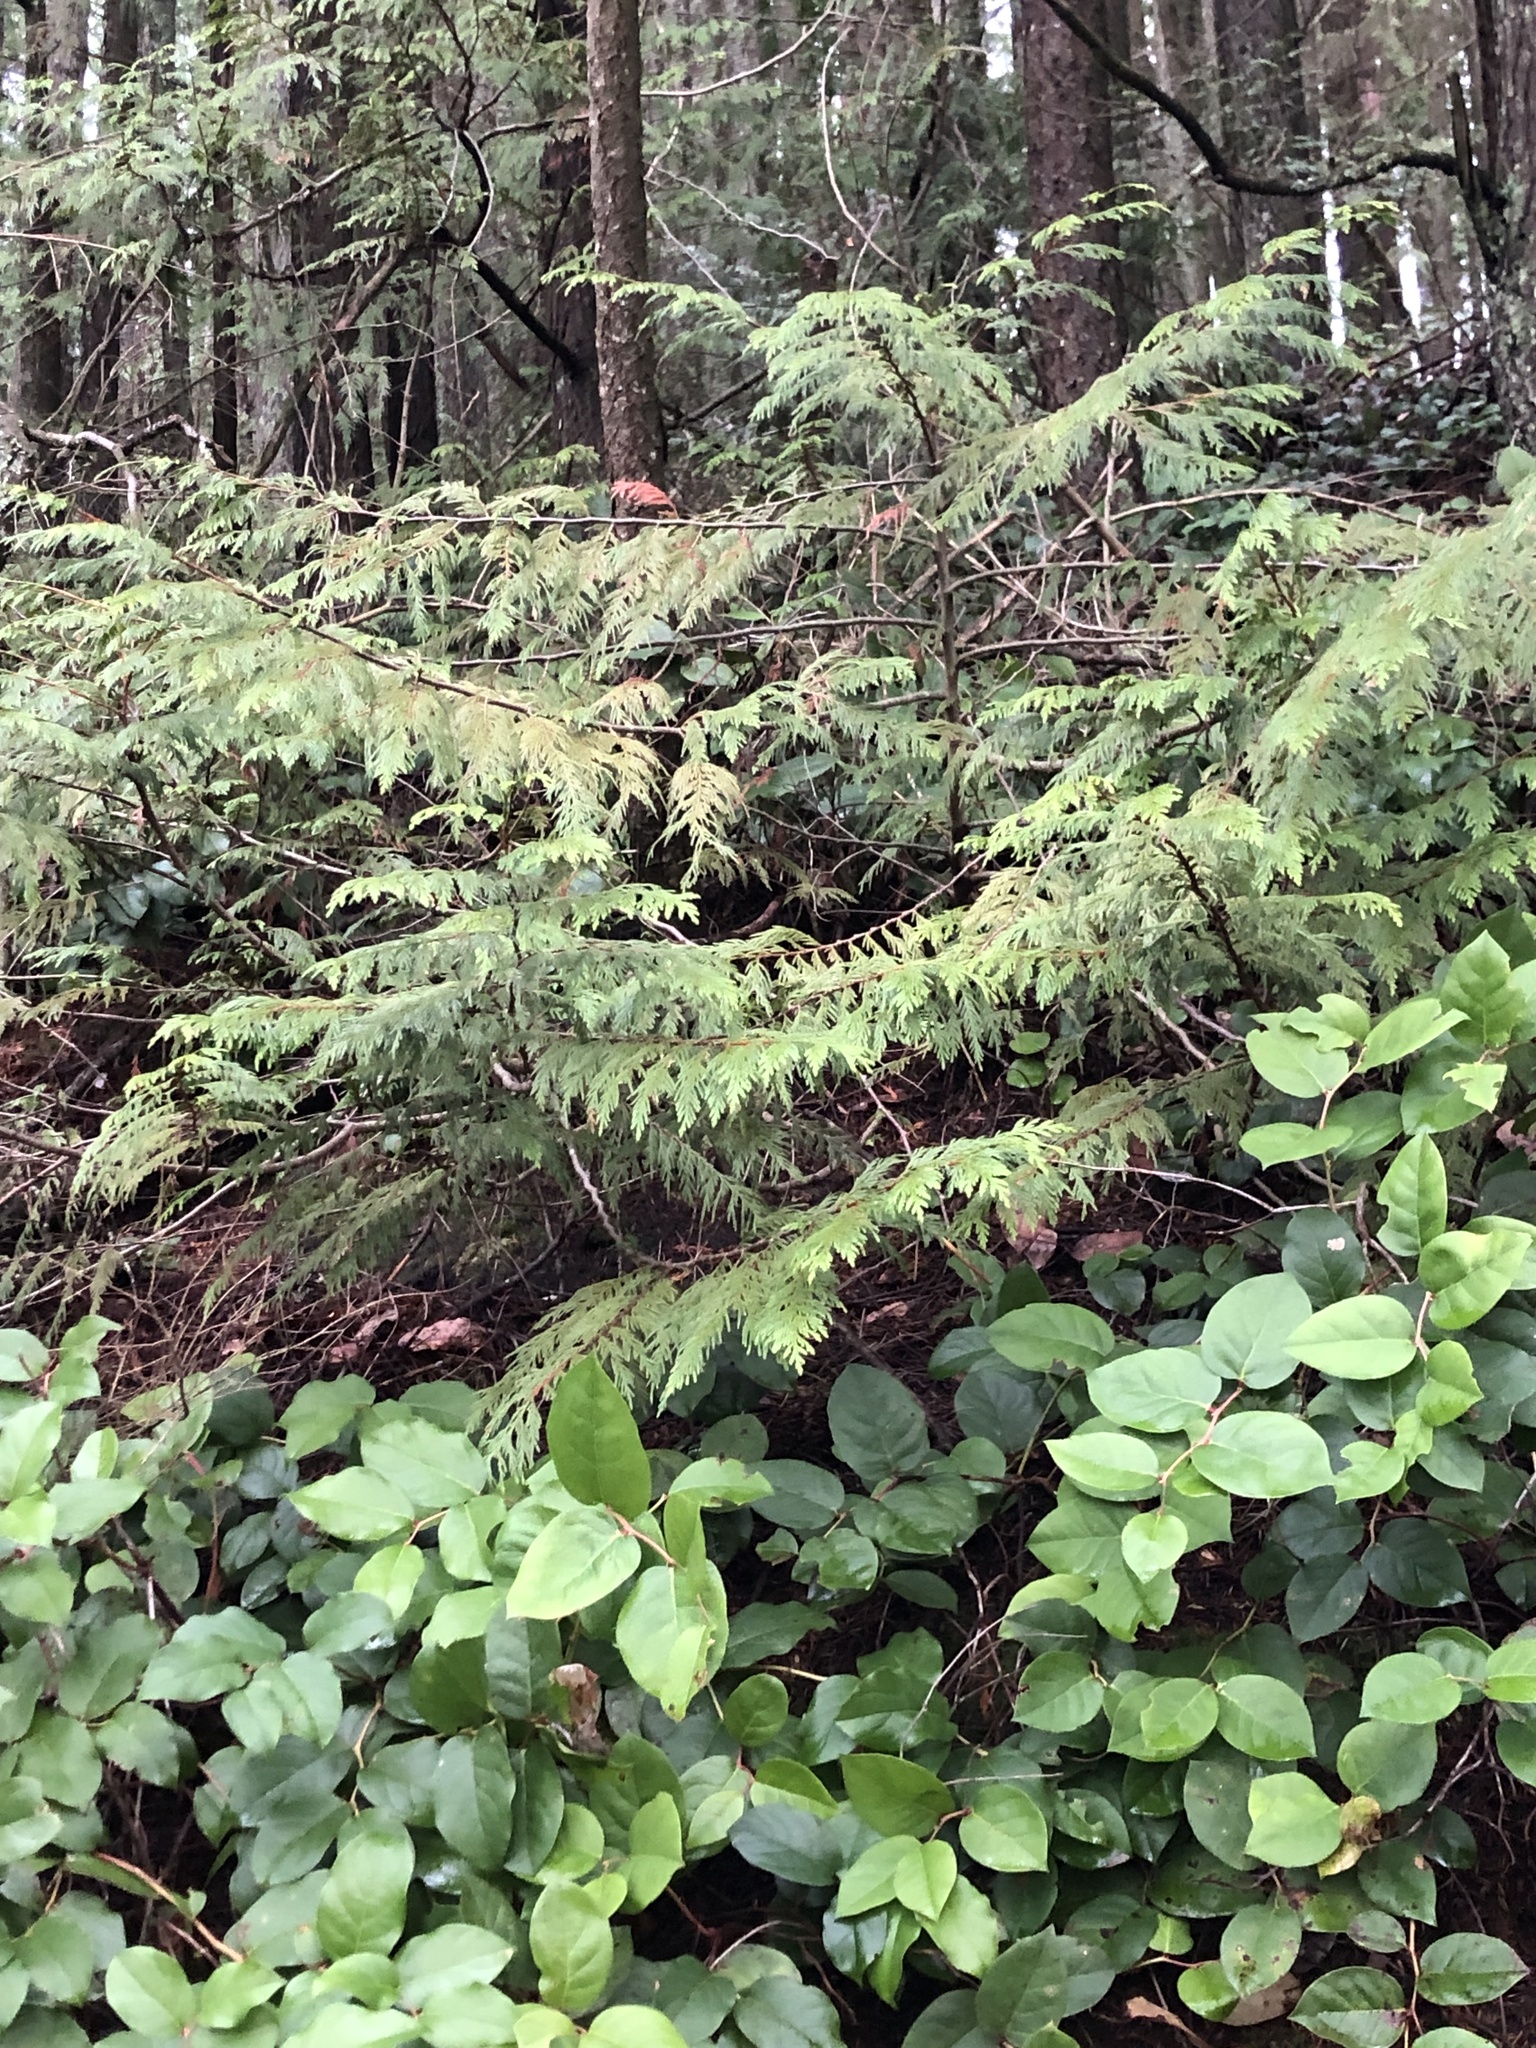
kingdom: Plantae
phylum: Tracheophyta
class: Pinopsida
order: Pinales
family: Cupressaceae
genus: Thuja
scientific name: Thuja plicata
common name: Western red-cedar
